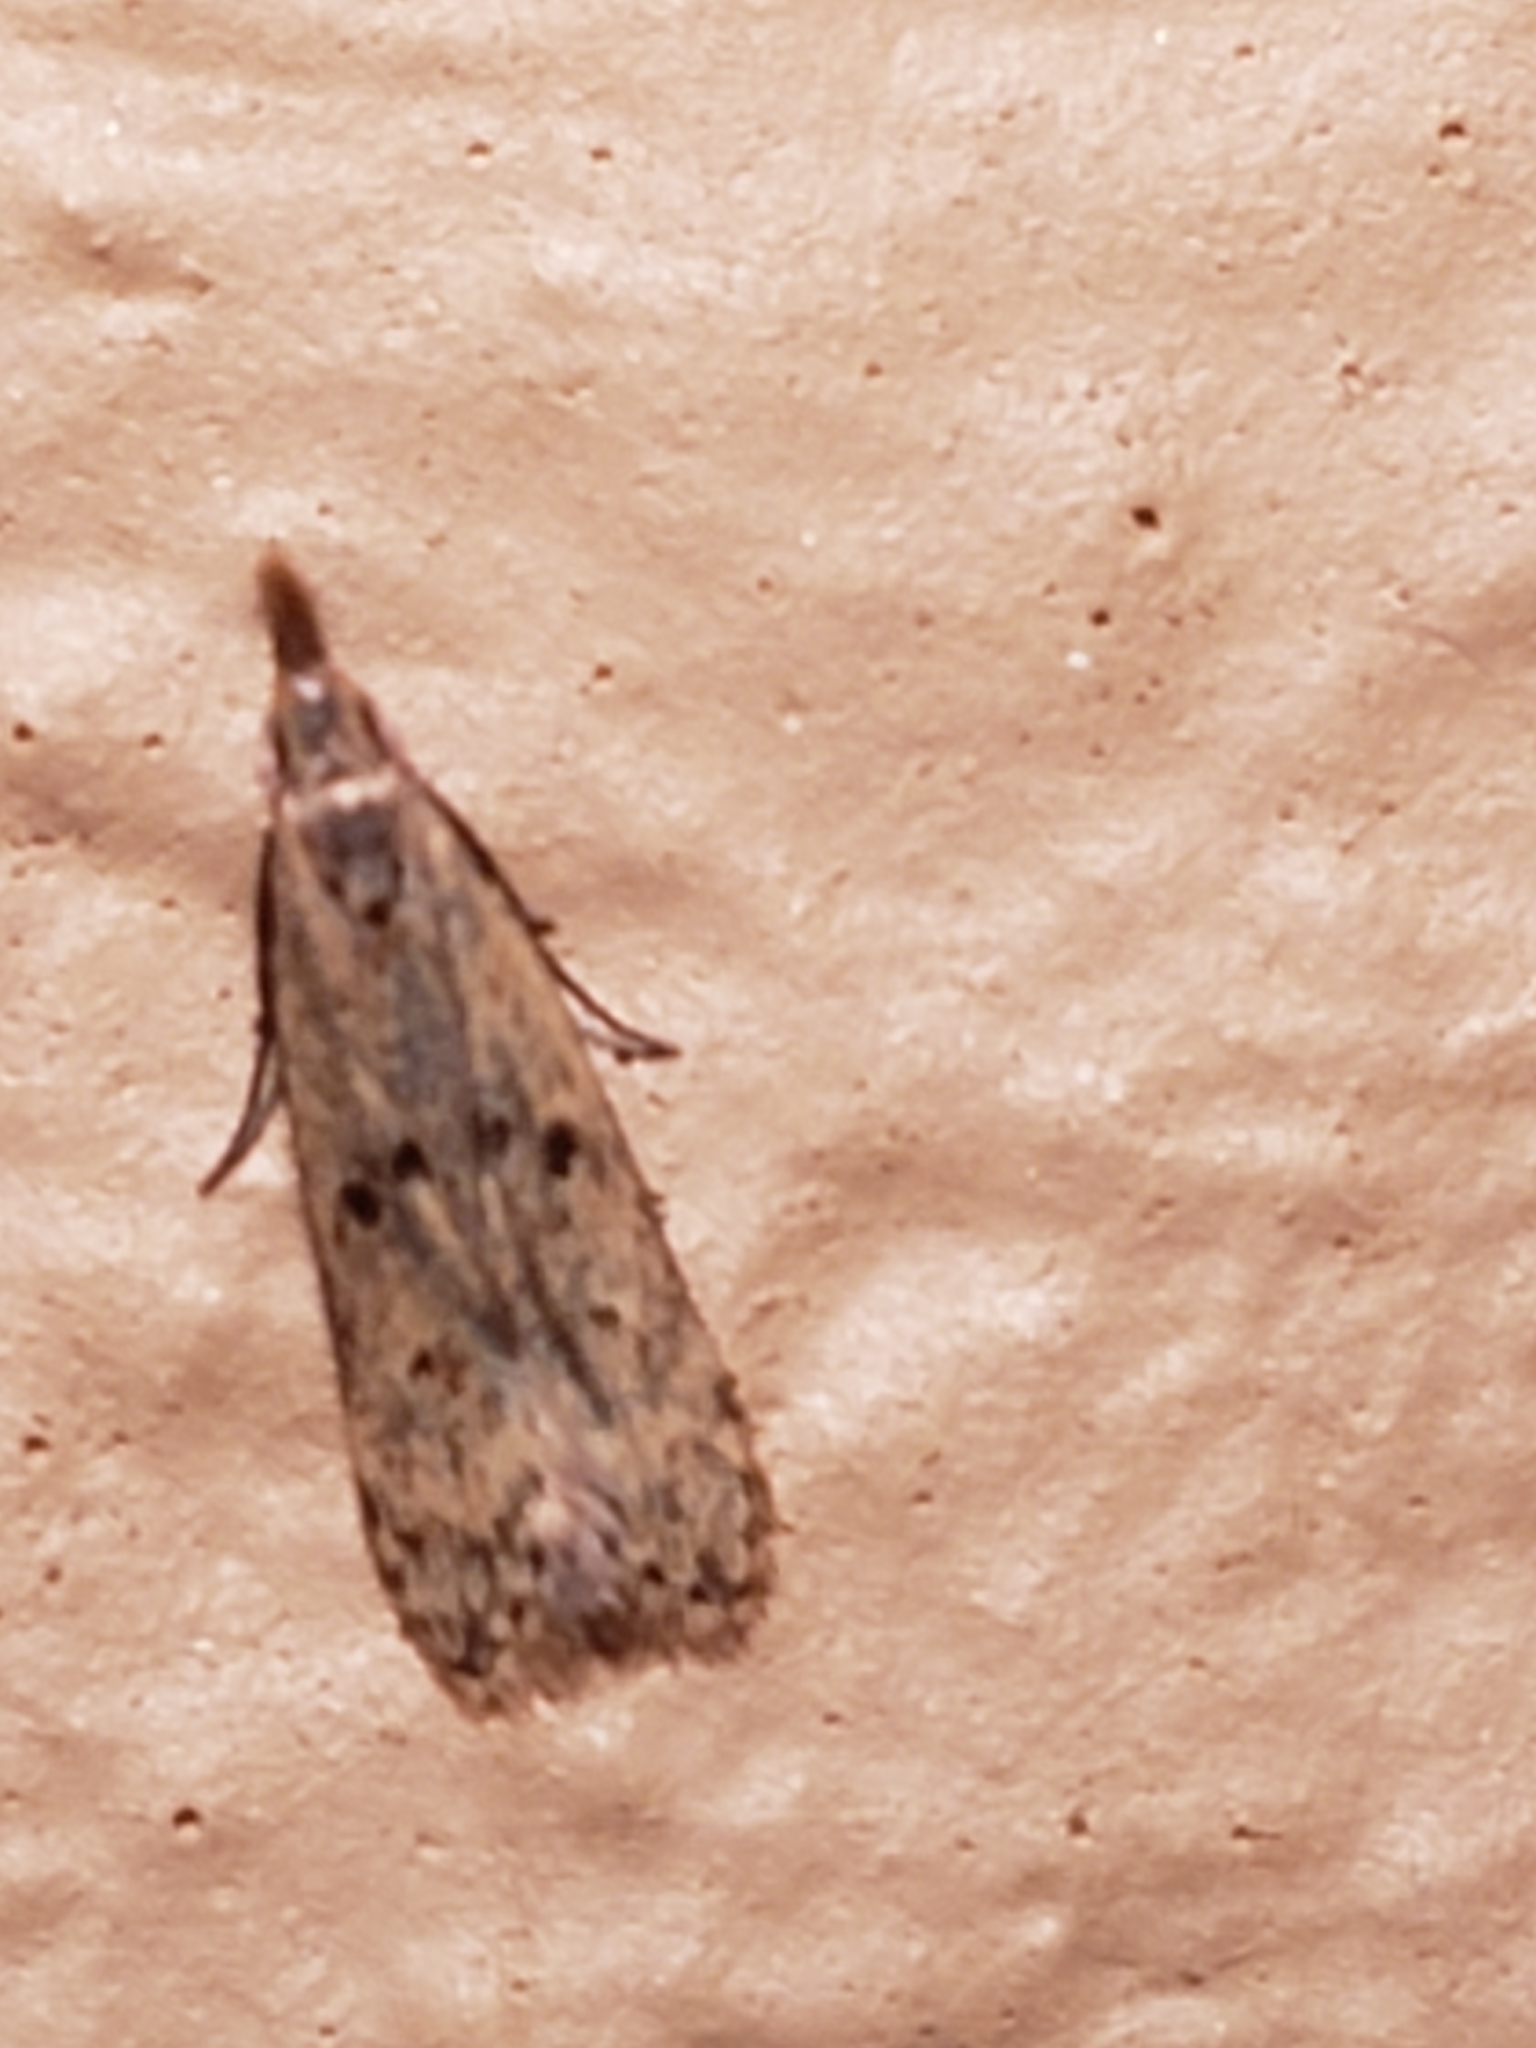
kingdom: Animalia
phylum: Arthropoda
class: Insecta
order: Lepidoptera
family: Gelechiidae
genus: Dichomeris
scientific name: Dichomeris punctipennella
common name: Many-spotted dichomeris moth
